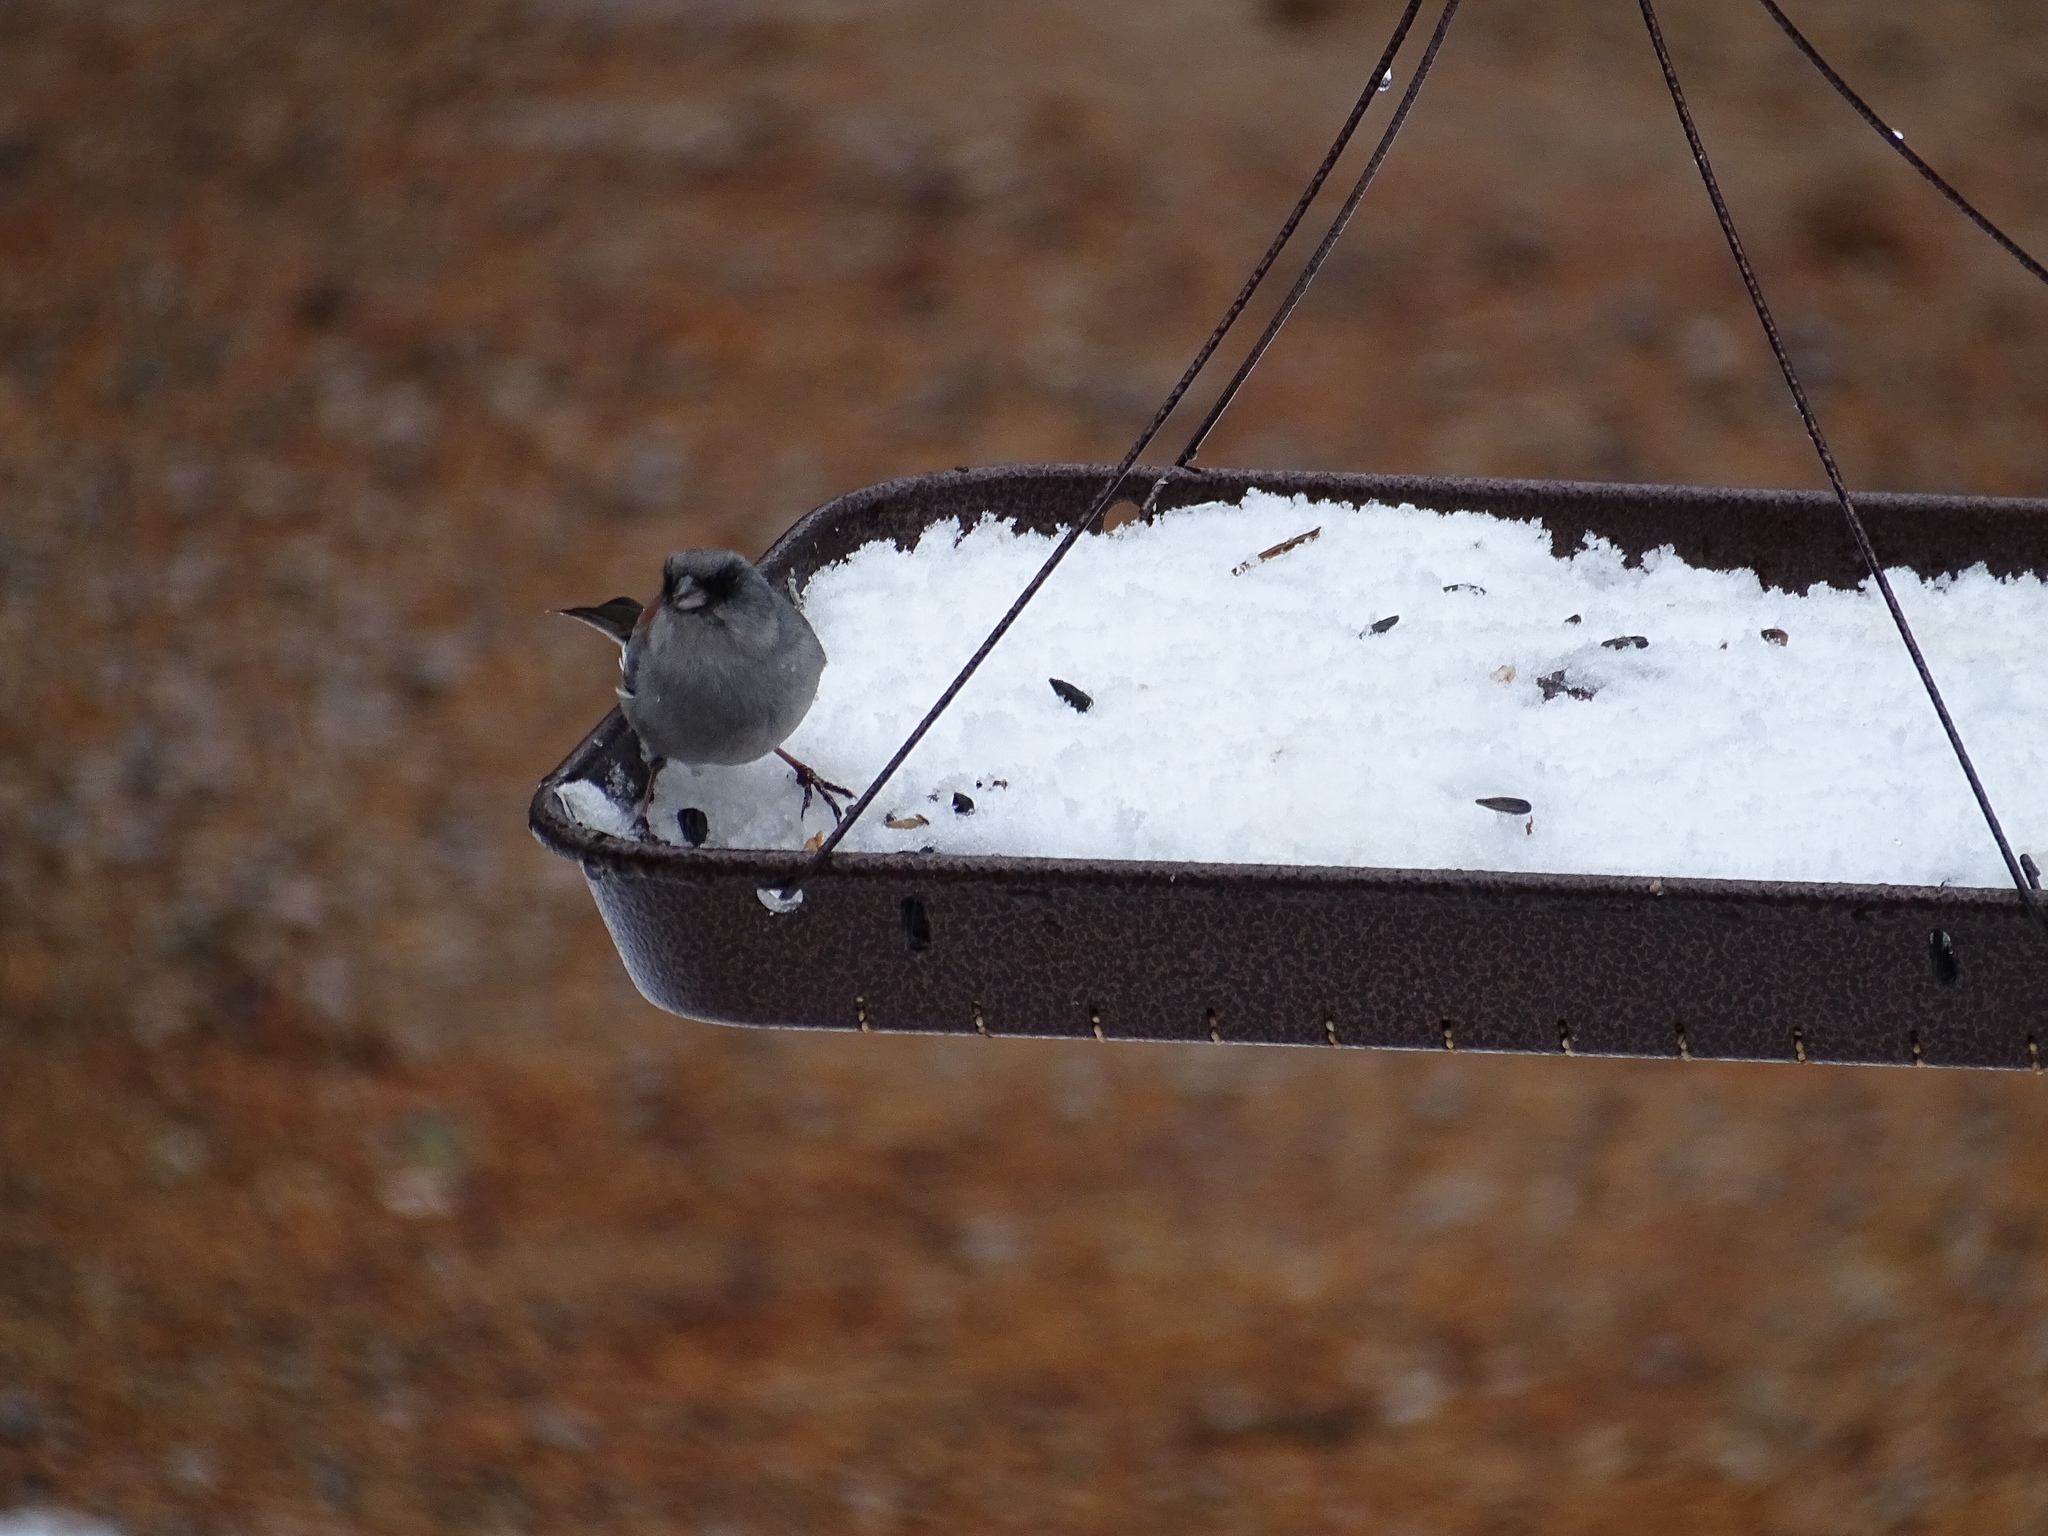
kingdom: Animalia
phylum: Chordata
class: Aves
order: Passeriformes
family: Passerellidae
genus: Junco
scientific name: Junco hyemalis
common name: Dark-eyed junco
